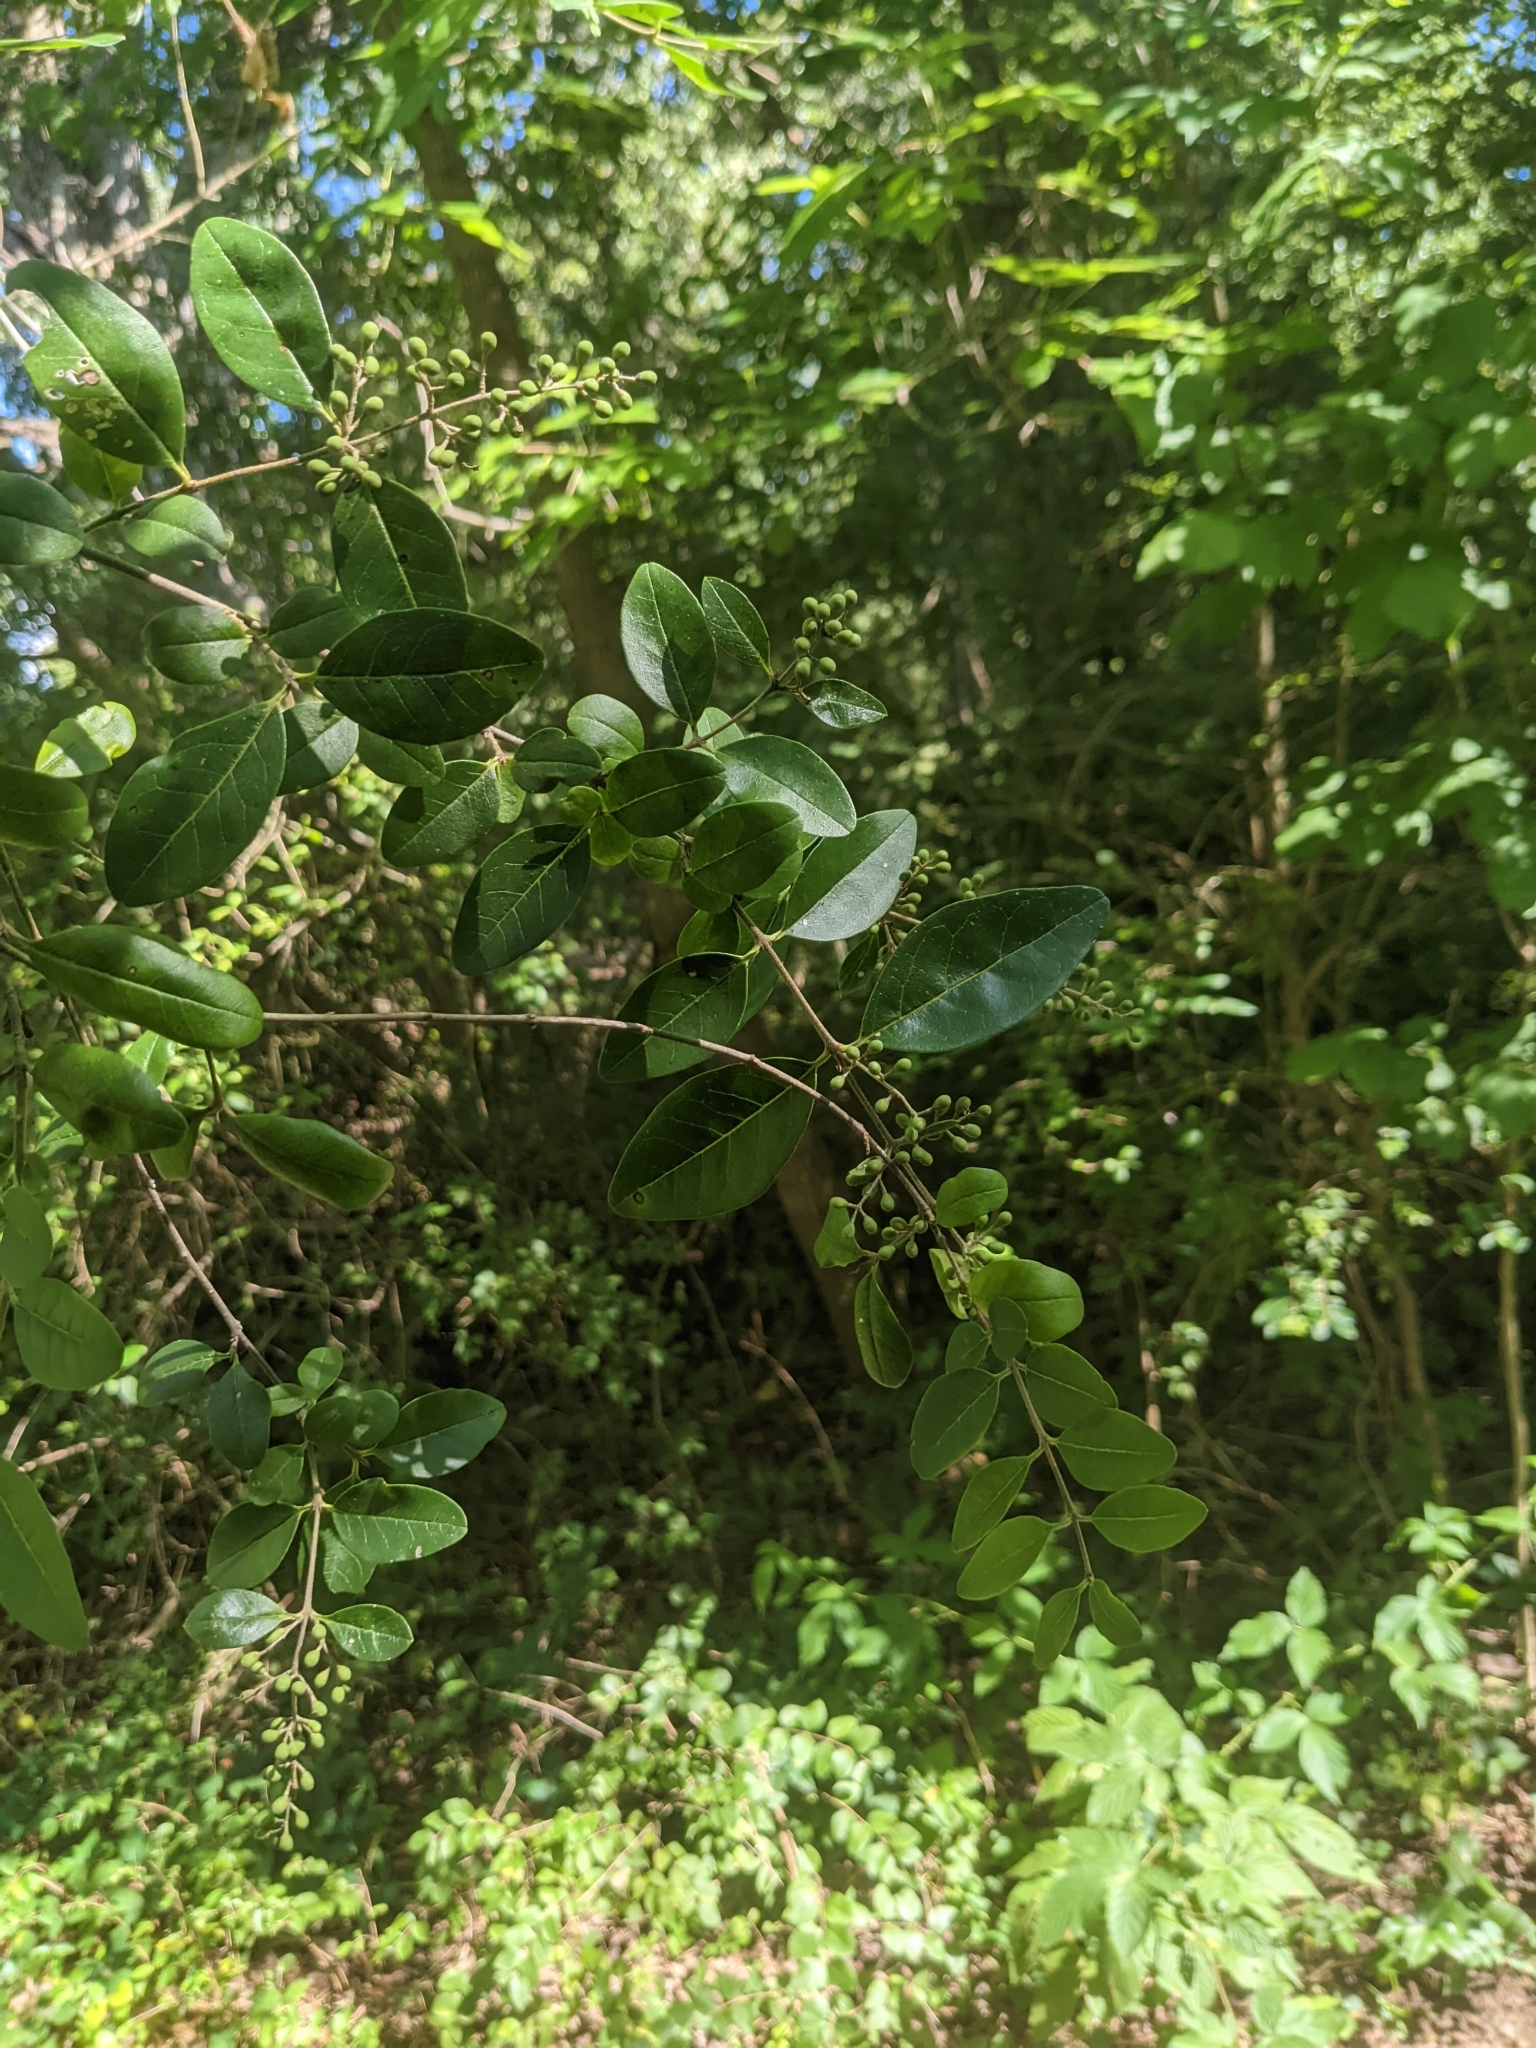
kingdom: Plantae
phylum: Tracheophyta
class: Magnoliopsida
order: Lamiales
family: Oleaceae
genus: Ligustrum
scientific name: Ligustrum sinense
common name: Chinese privet
